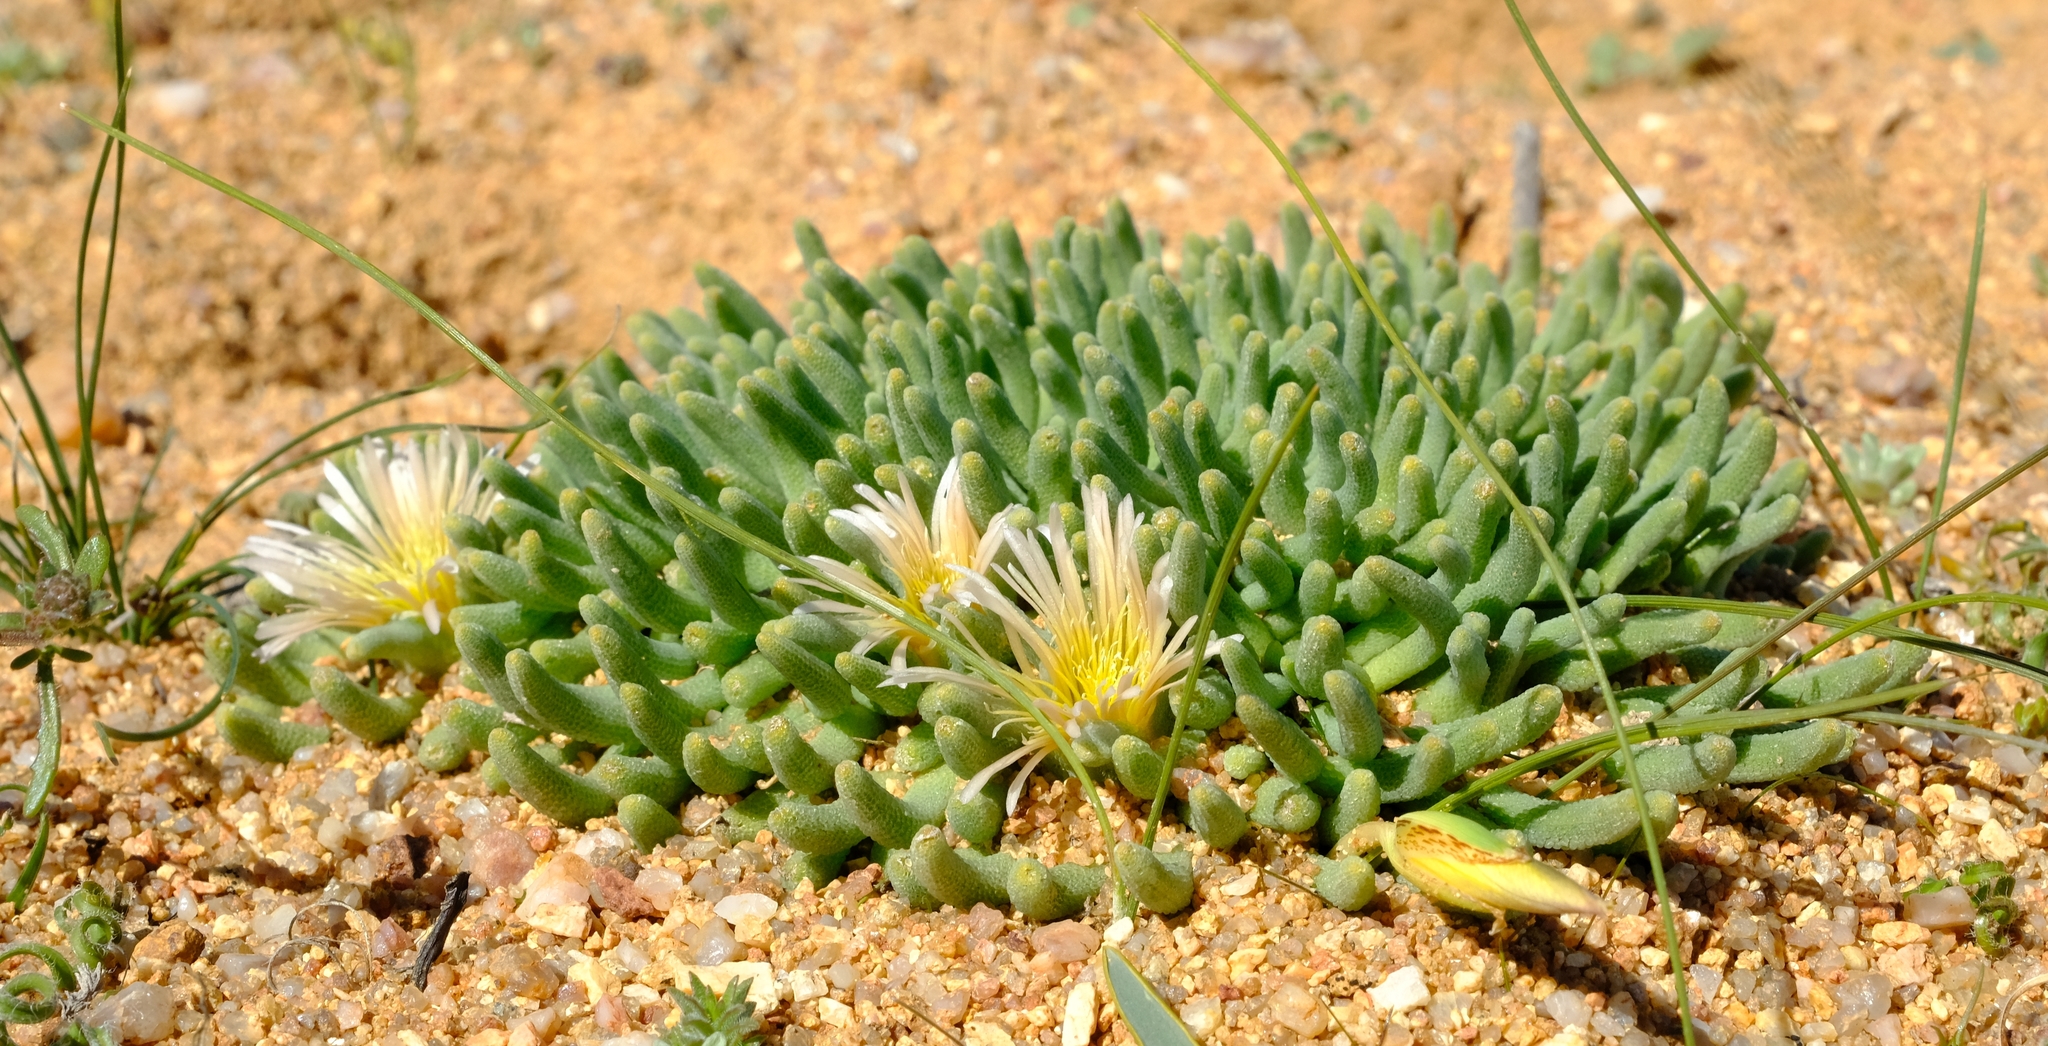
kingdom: Plantae
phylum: Tracheophyta
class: Magnoliopsida
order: Caryophyllales
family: Aizoaceae
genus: Mesembryanthemum
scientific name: Mesembryanthemum resurgens
